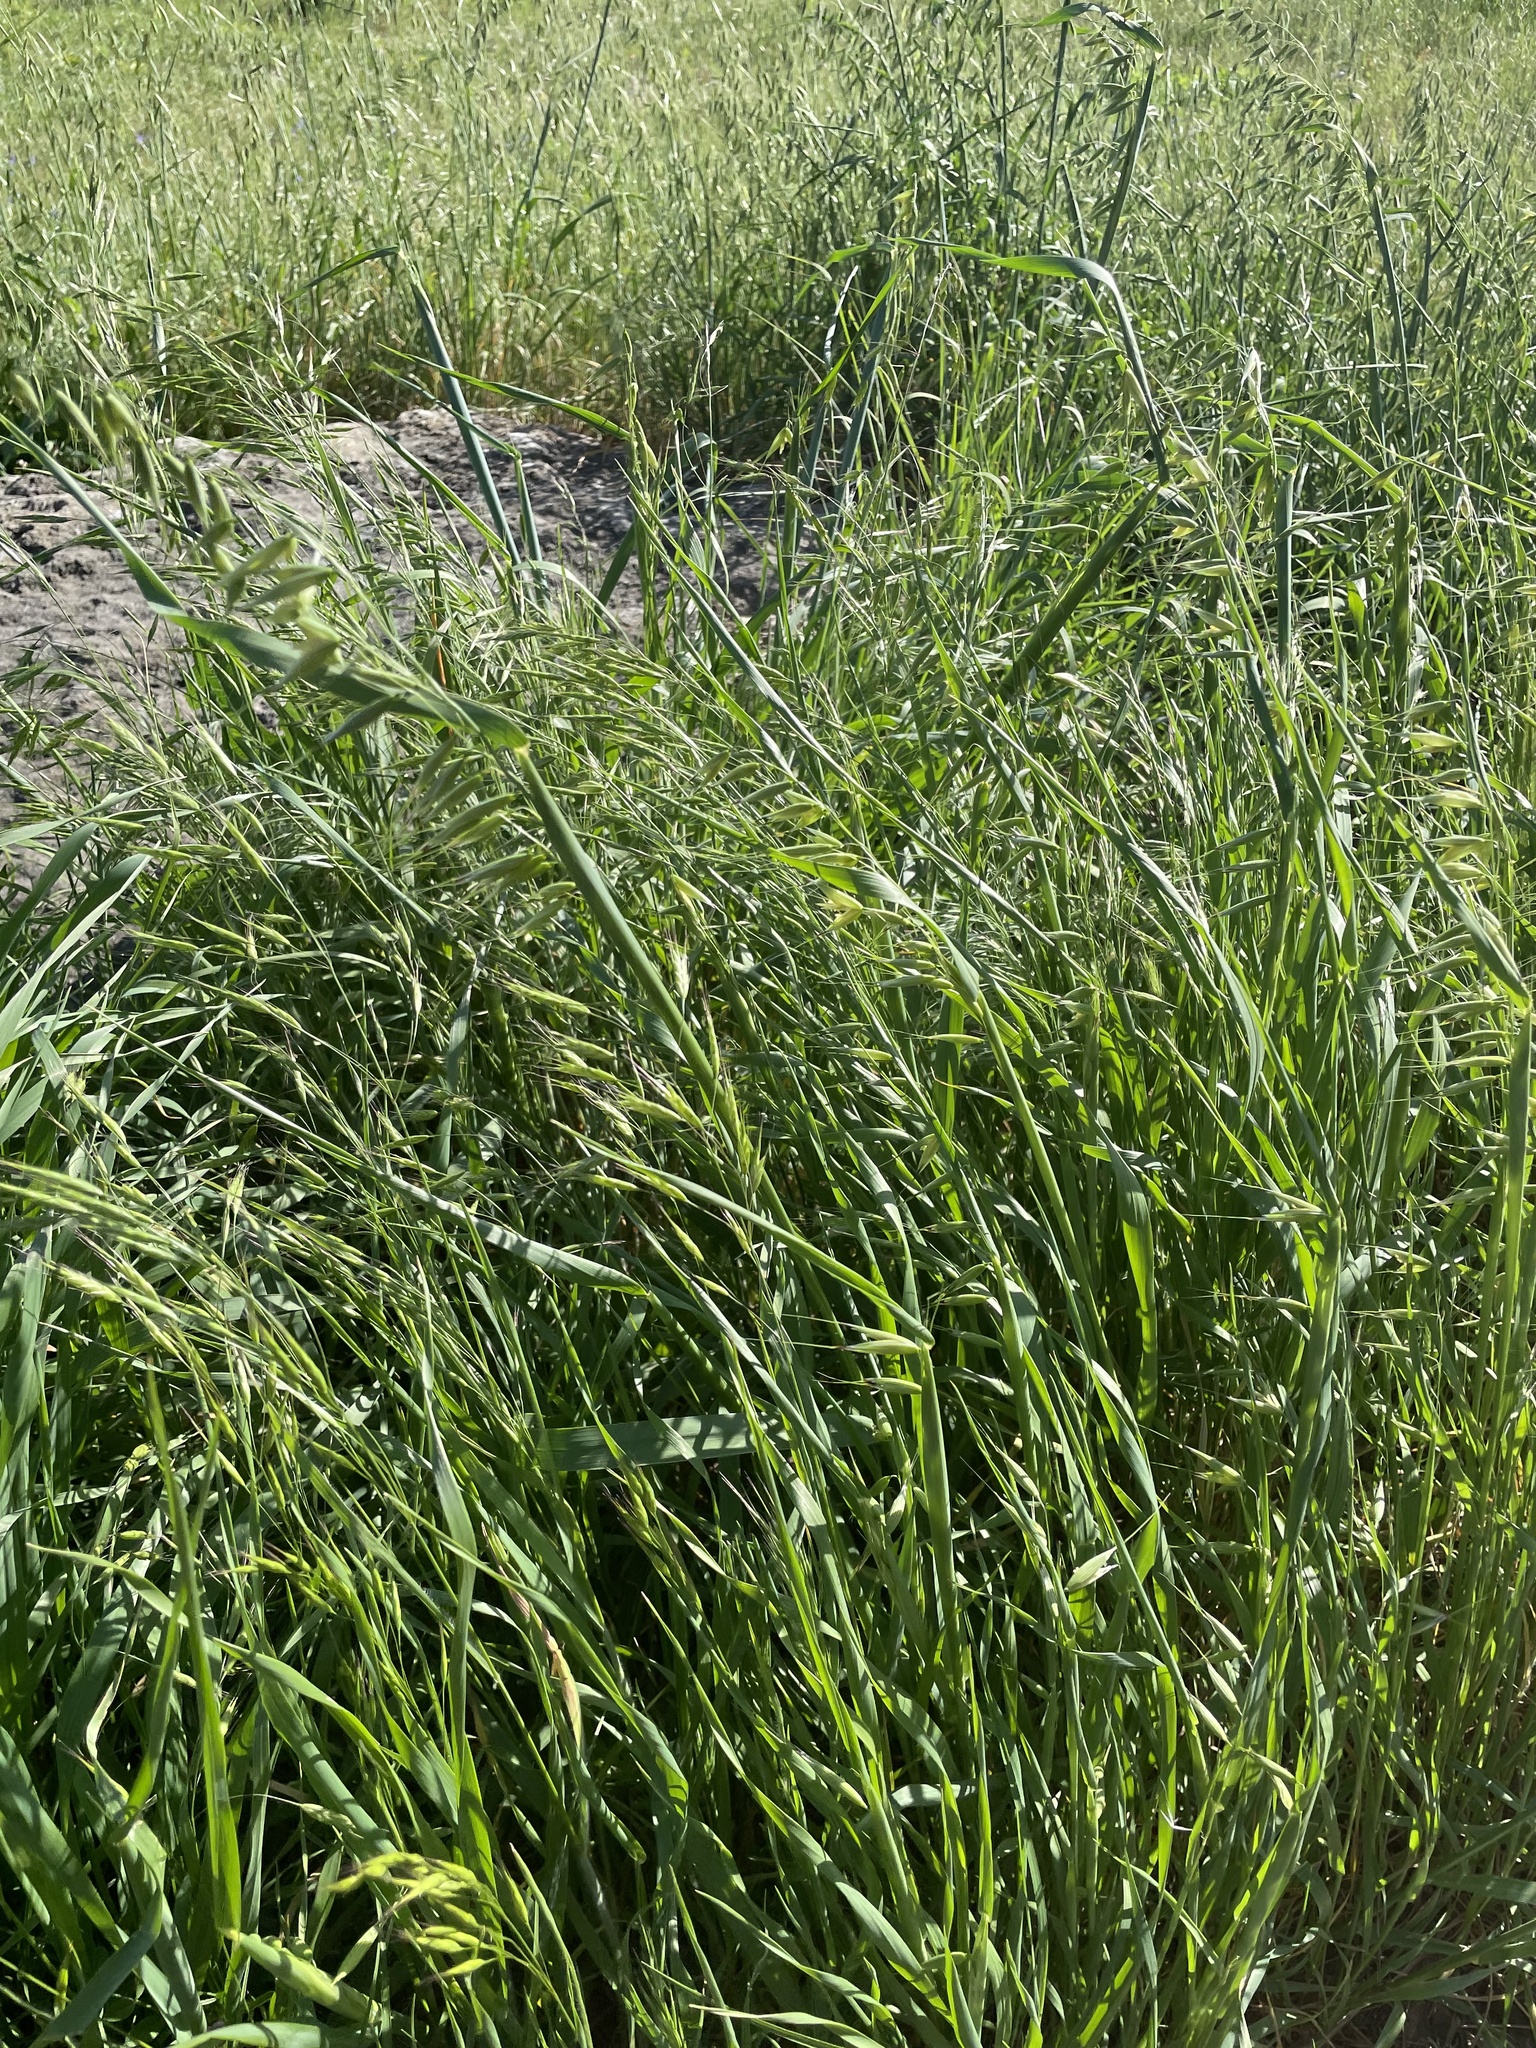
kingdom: Plantae
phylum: Tracheophyta
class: Liliopsida
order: Poales
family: Poaceae
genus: Avena
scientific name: Avena fatua
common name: Wild oat
